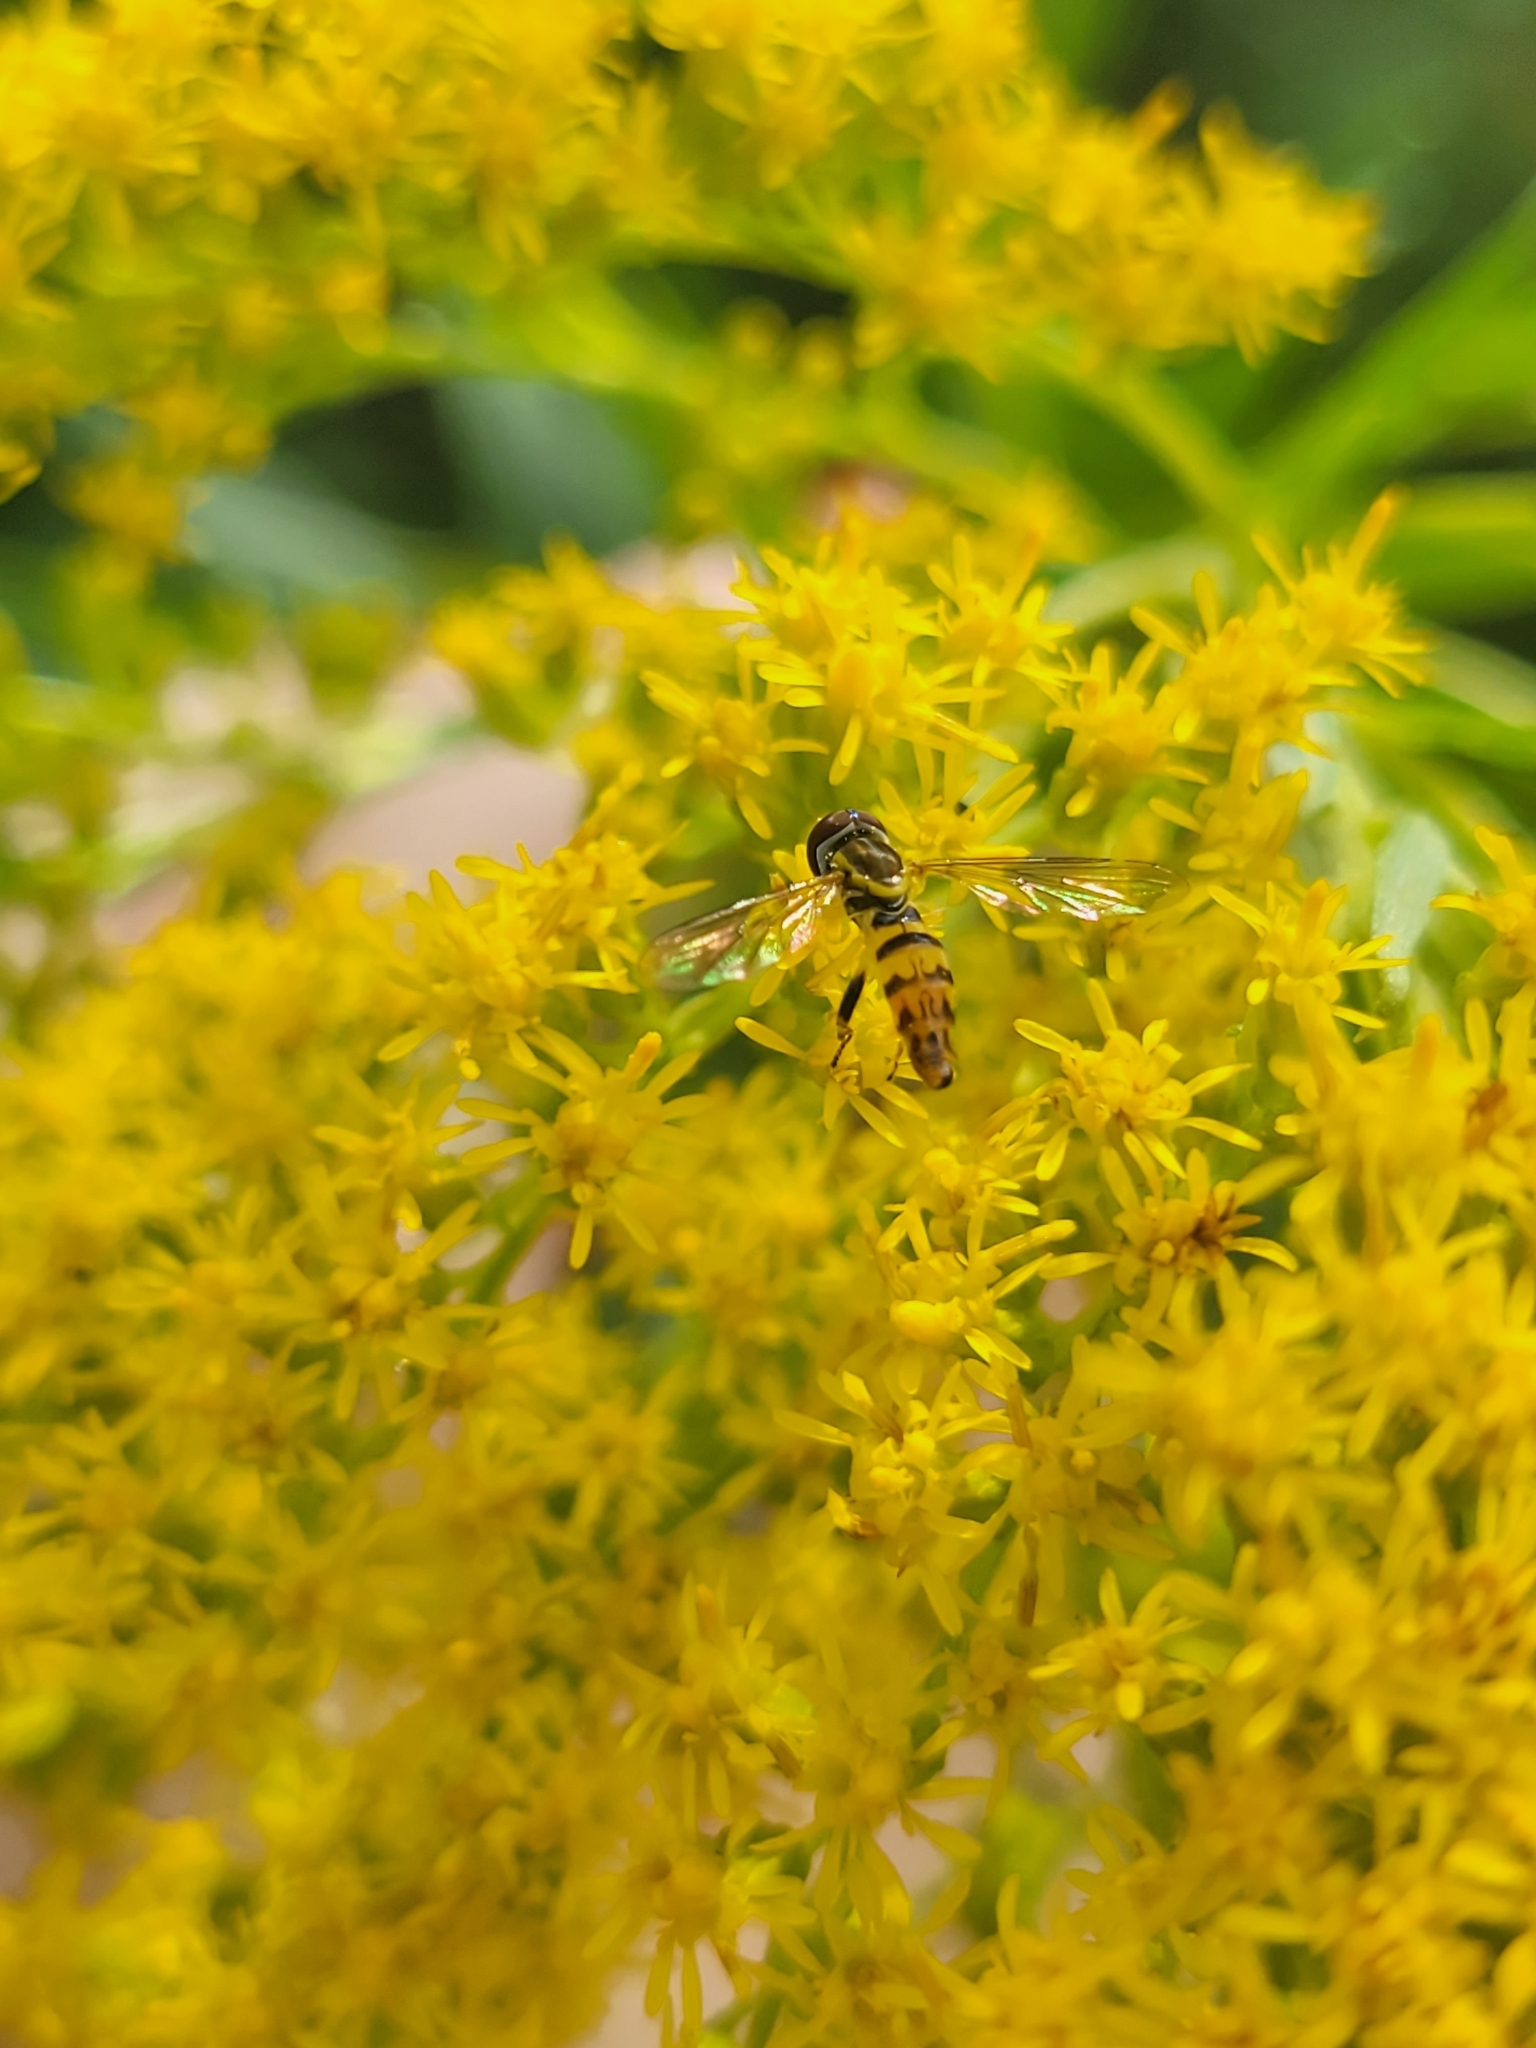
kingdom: Animalia
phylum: Arthropoda
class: Insecta
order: Diptera
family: Syrphidae
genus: Toxomerus
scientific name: Toxomerus geminatus
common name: Eastern calligrapher
